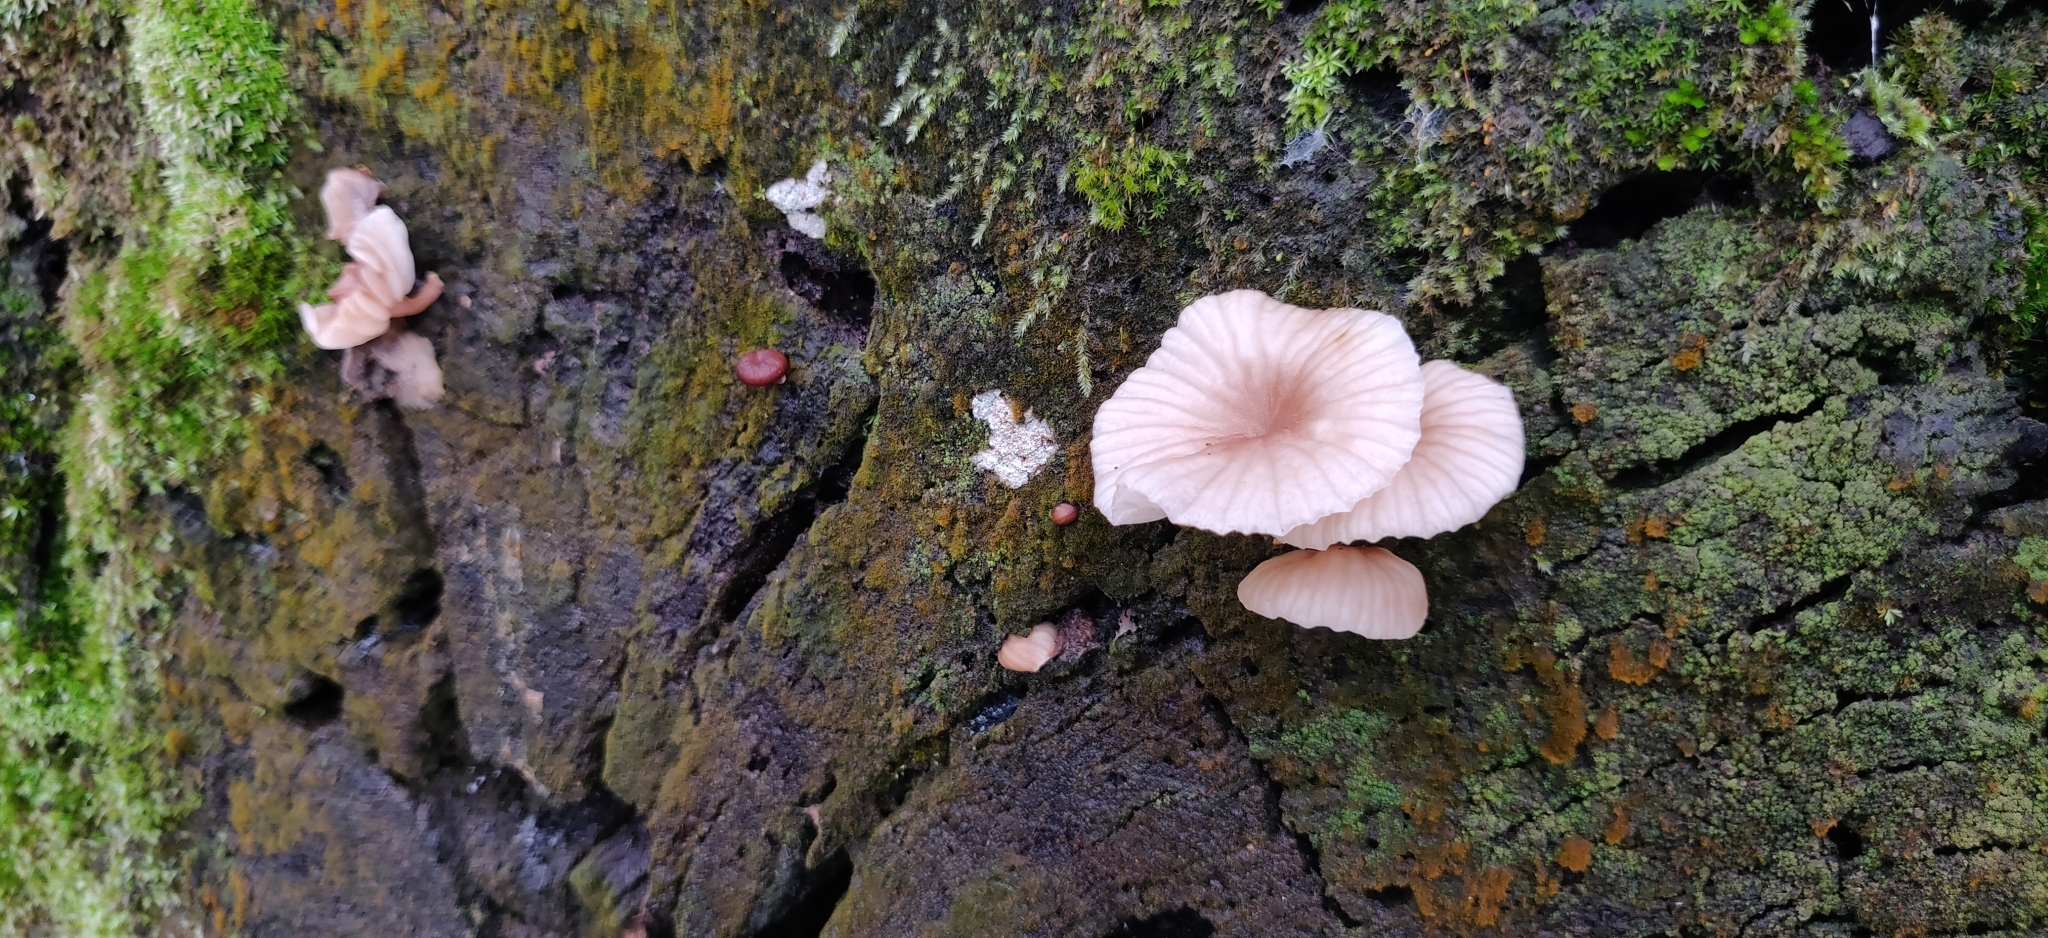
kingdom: Fungi
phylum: Basidiomycota
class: Agaricomycetes
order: Agaricales
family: Omphalotaceae
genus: Marasmiellus
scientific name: Marasmiellus candidus
